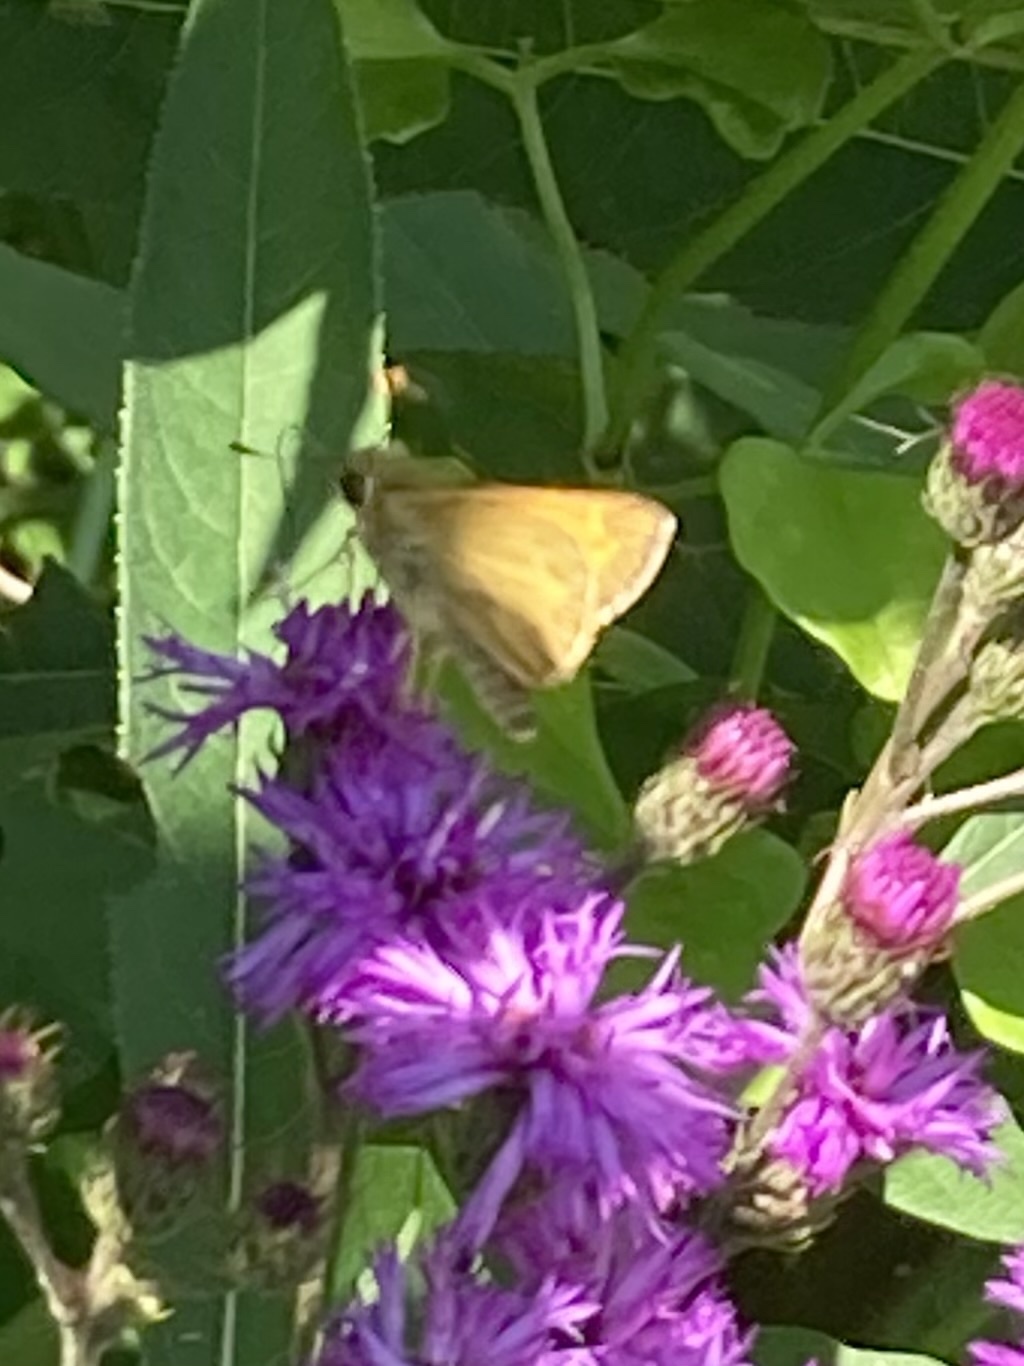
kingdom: Animalia
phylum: Arthropoda
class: Insecta
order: Lepidoptera
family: Hesperiidae
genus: Atalopedes
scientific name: Atalopedes
